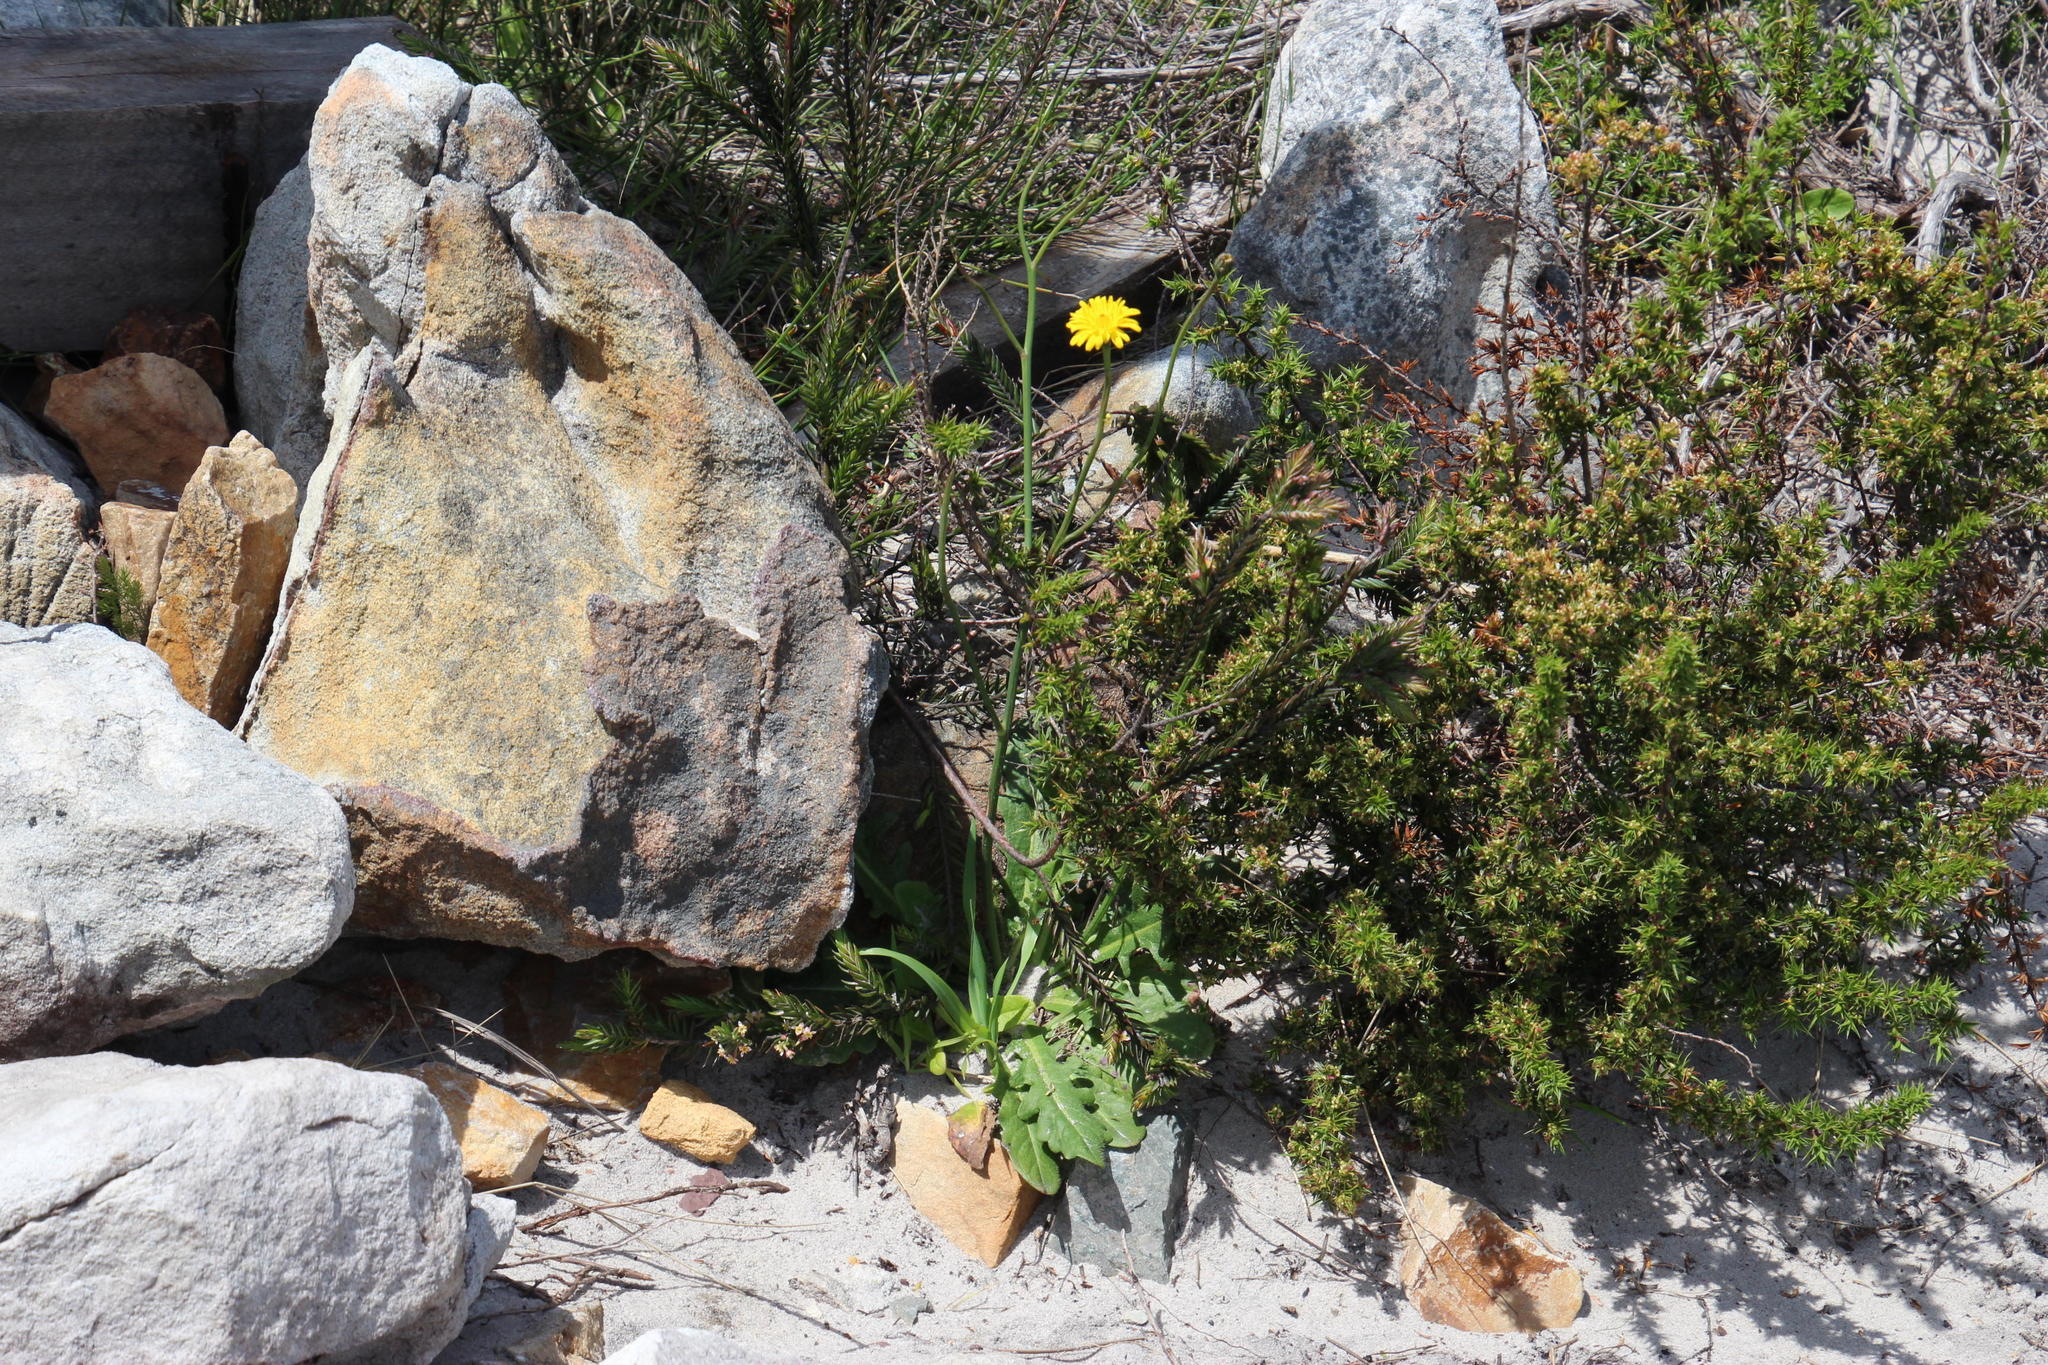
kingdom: Plantae
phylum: Tracheophyta
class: Magnoliopsida
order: Asterales
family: Asteraceae
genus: Hypochaeris
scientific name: Hypochaeris radicata
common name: Flatweed
